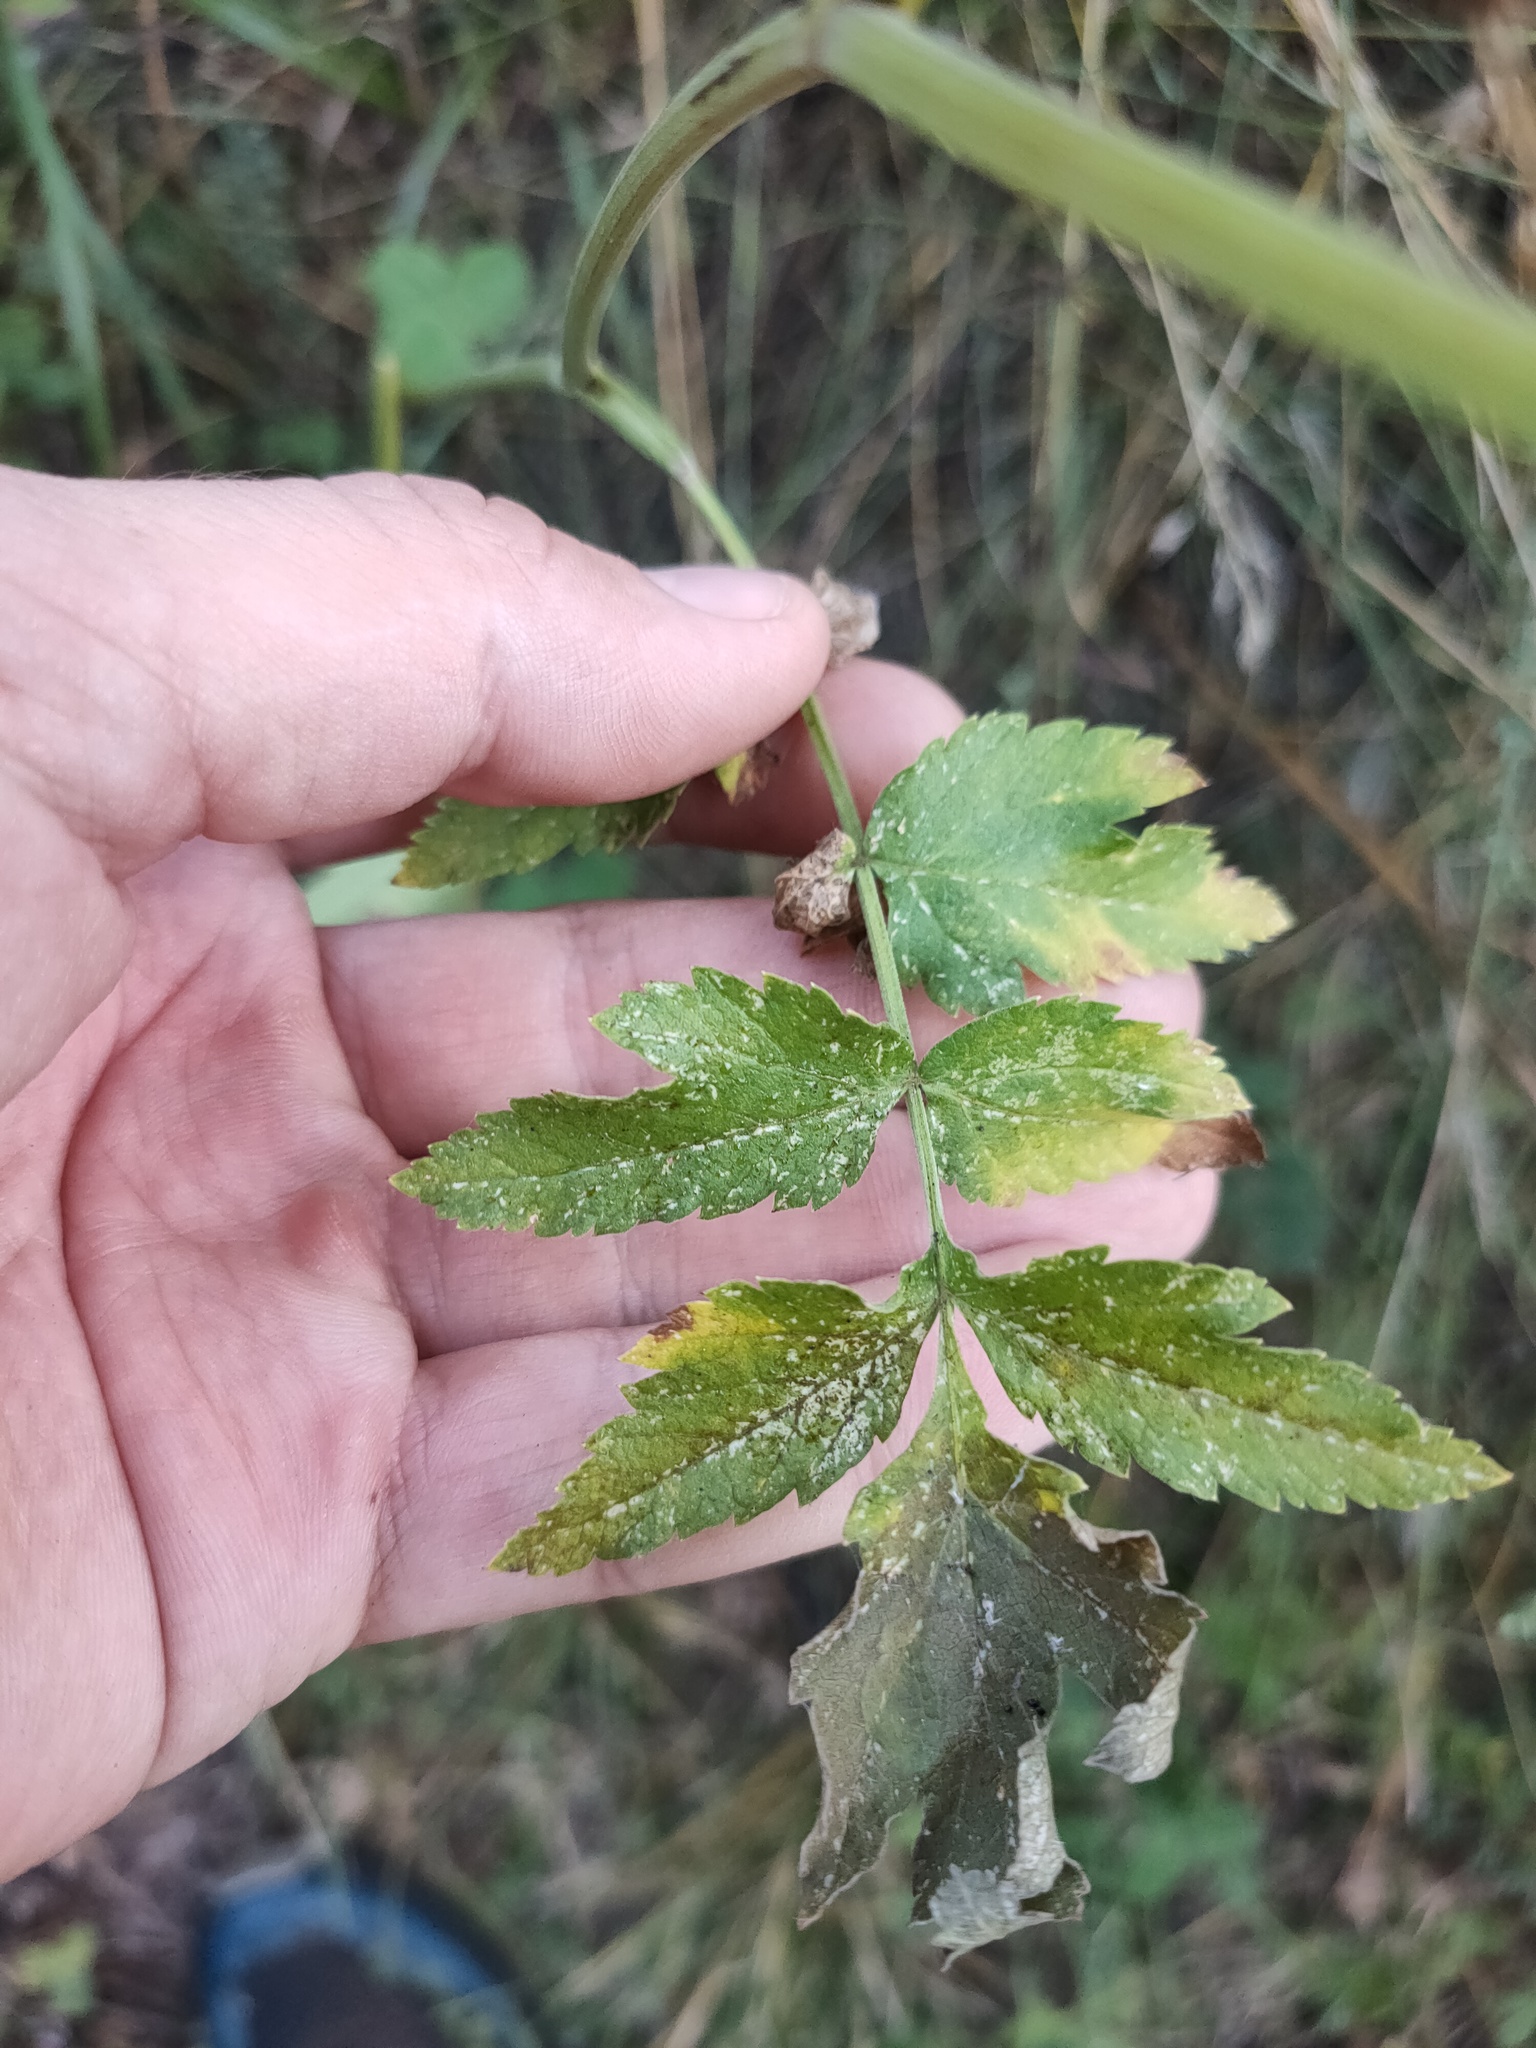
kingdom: Plantae
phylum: Tracheophyta
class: Magnoliopsida
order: Apiales
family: Apiaceae
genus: Pastinaca
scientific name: Pastinaca sativa
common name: Wild parsnip
